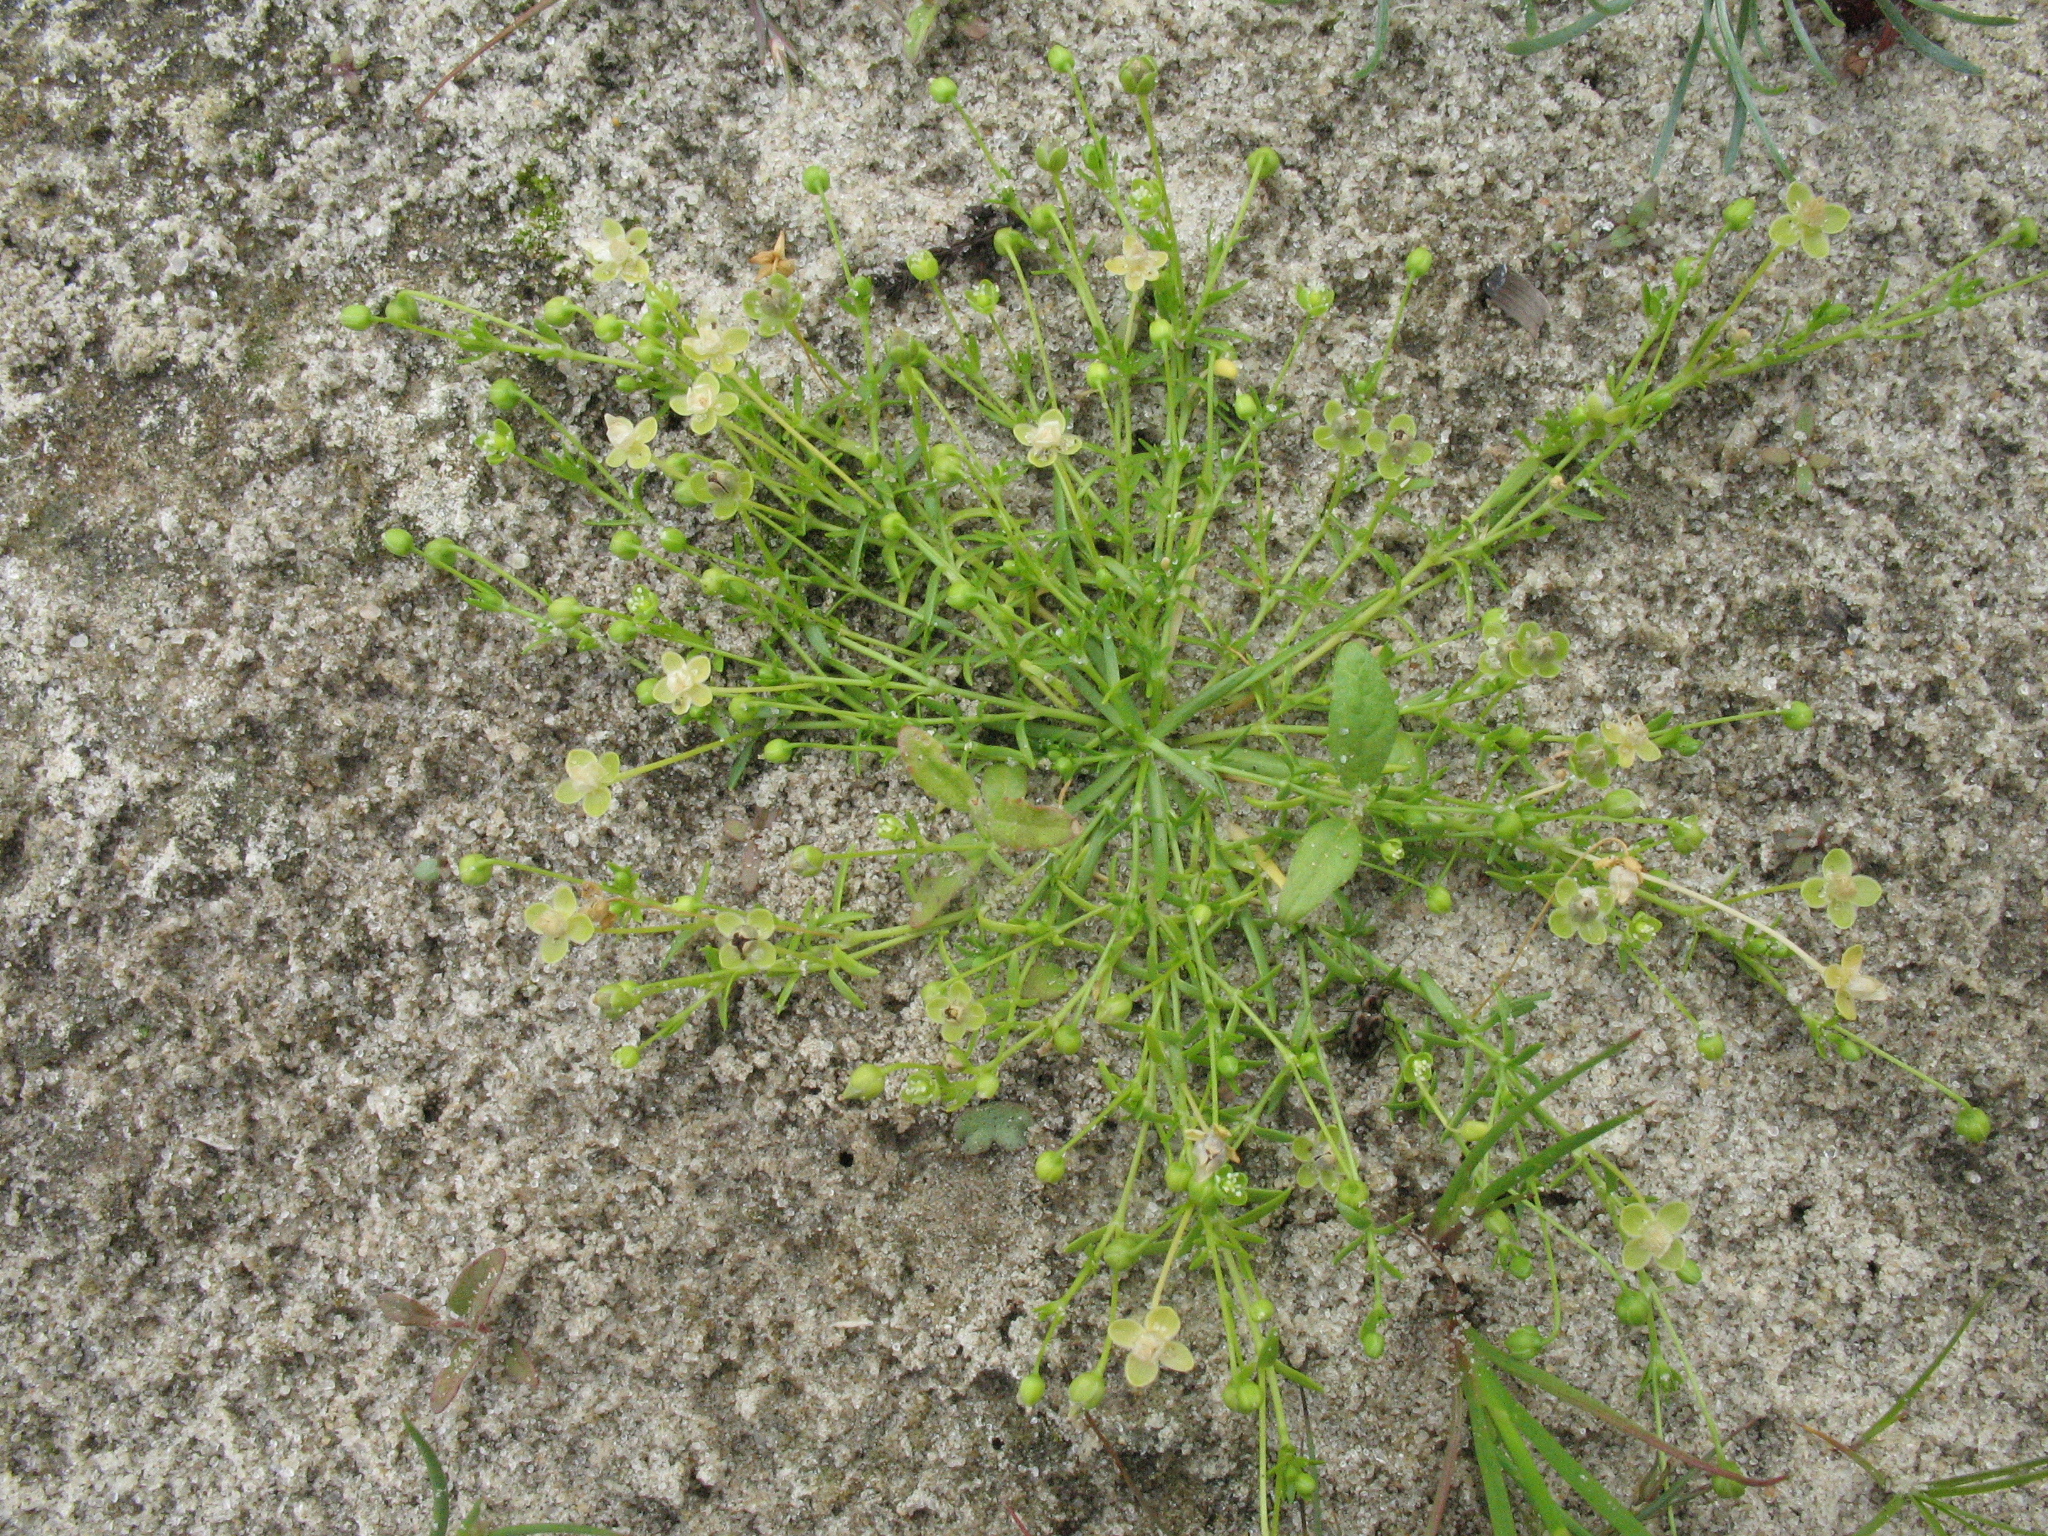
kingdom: Plantae
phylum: Tracheophyta
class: Magnoliopsida
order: Caryophyllales
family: Caryophyllaceae
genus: Sagina
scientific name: Sagina procumbens
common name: Procumbent pearlwort
